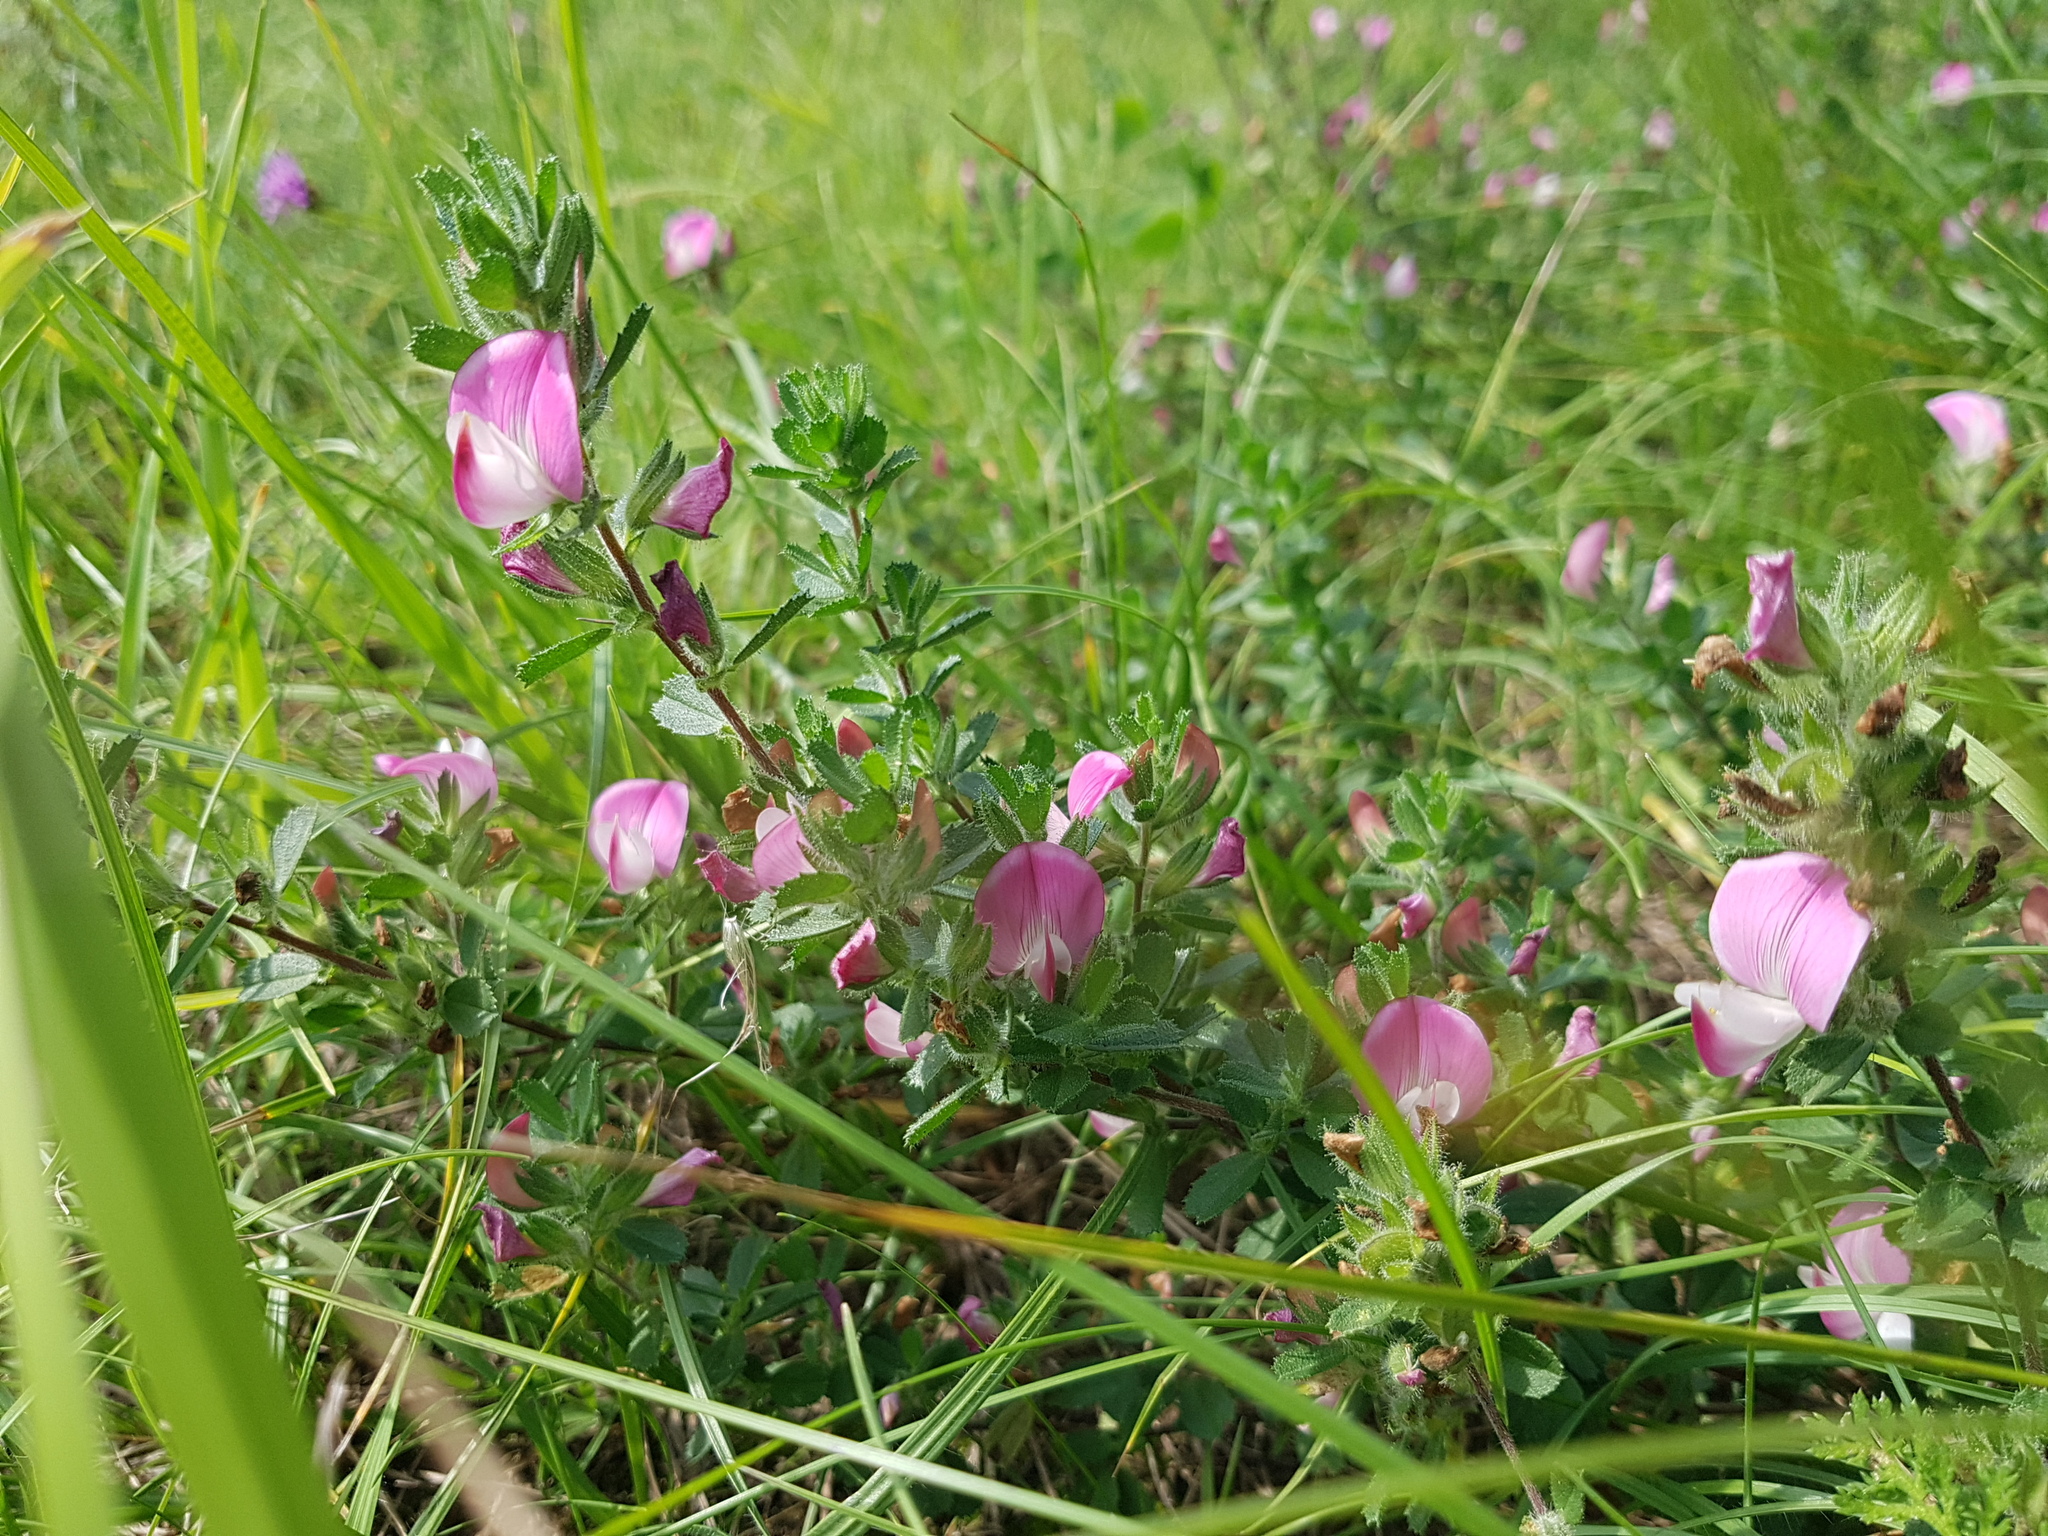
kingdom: Plantae
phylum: Tracheophyta
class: Magnoliopsida
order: Fabales
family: Fabaceae
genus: Ononis
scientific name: Ononis spinosa
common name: Spiny restharrow
